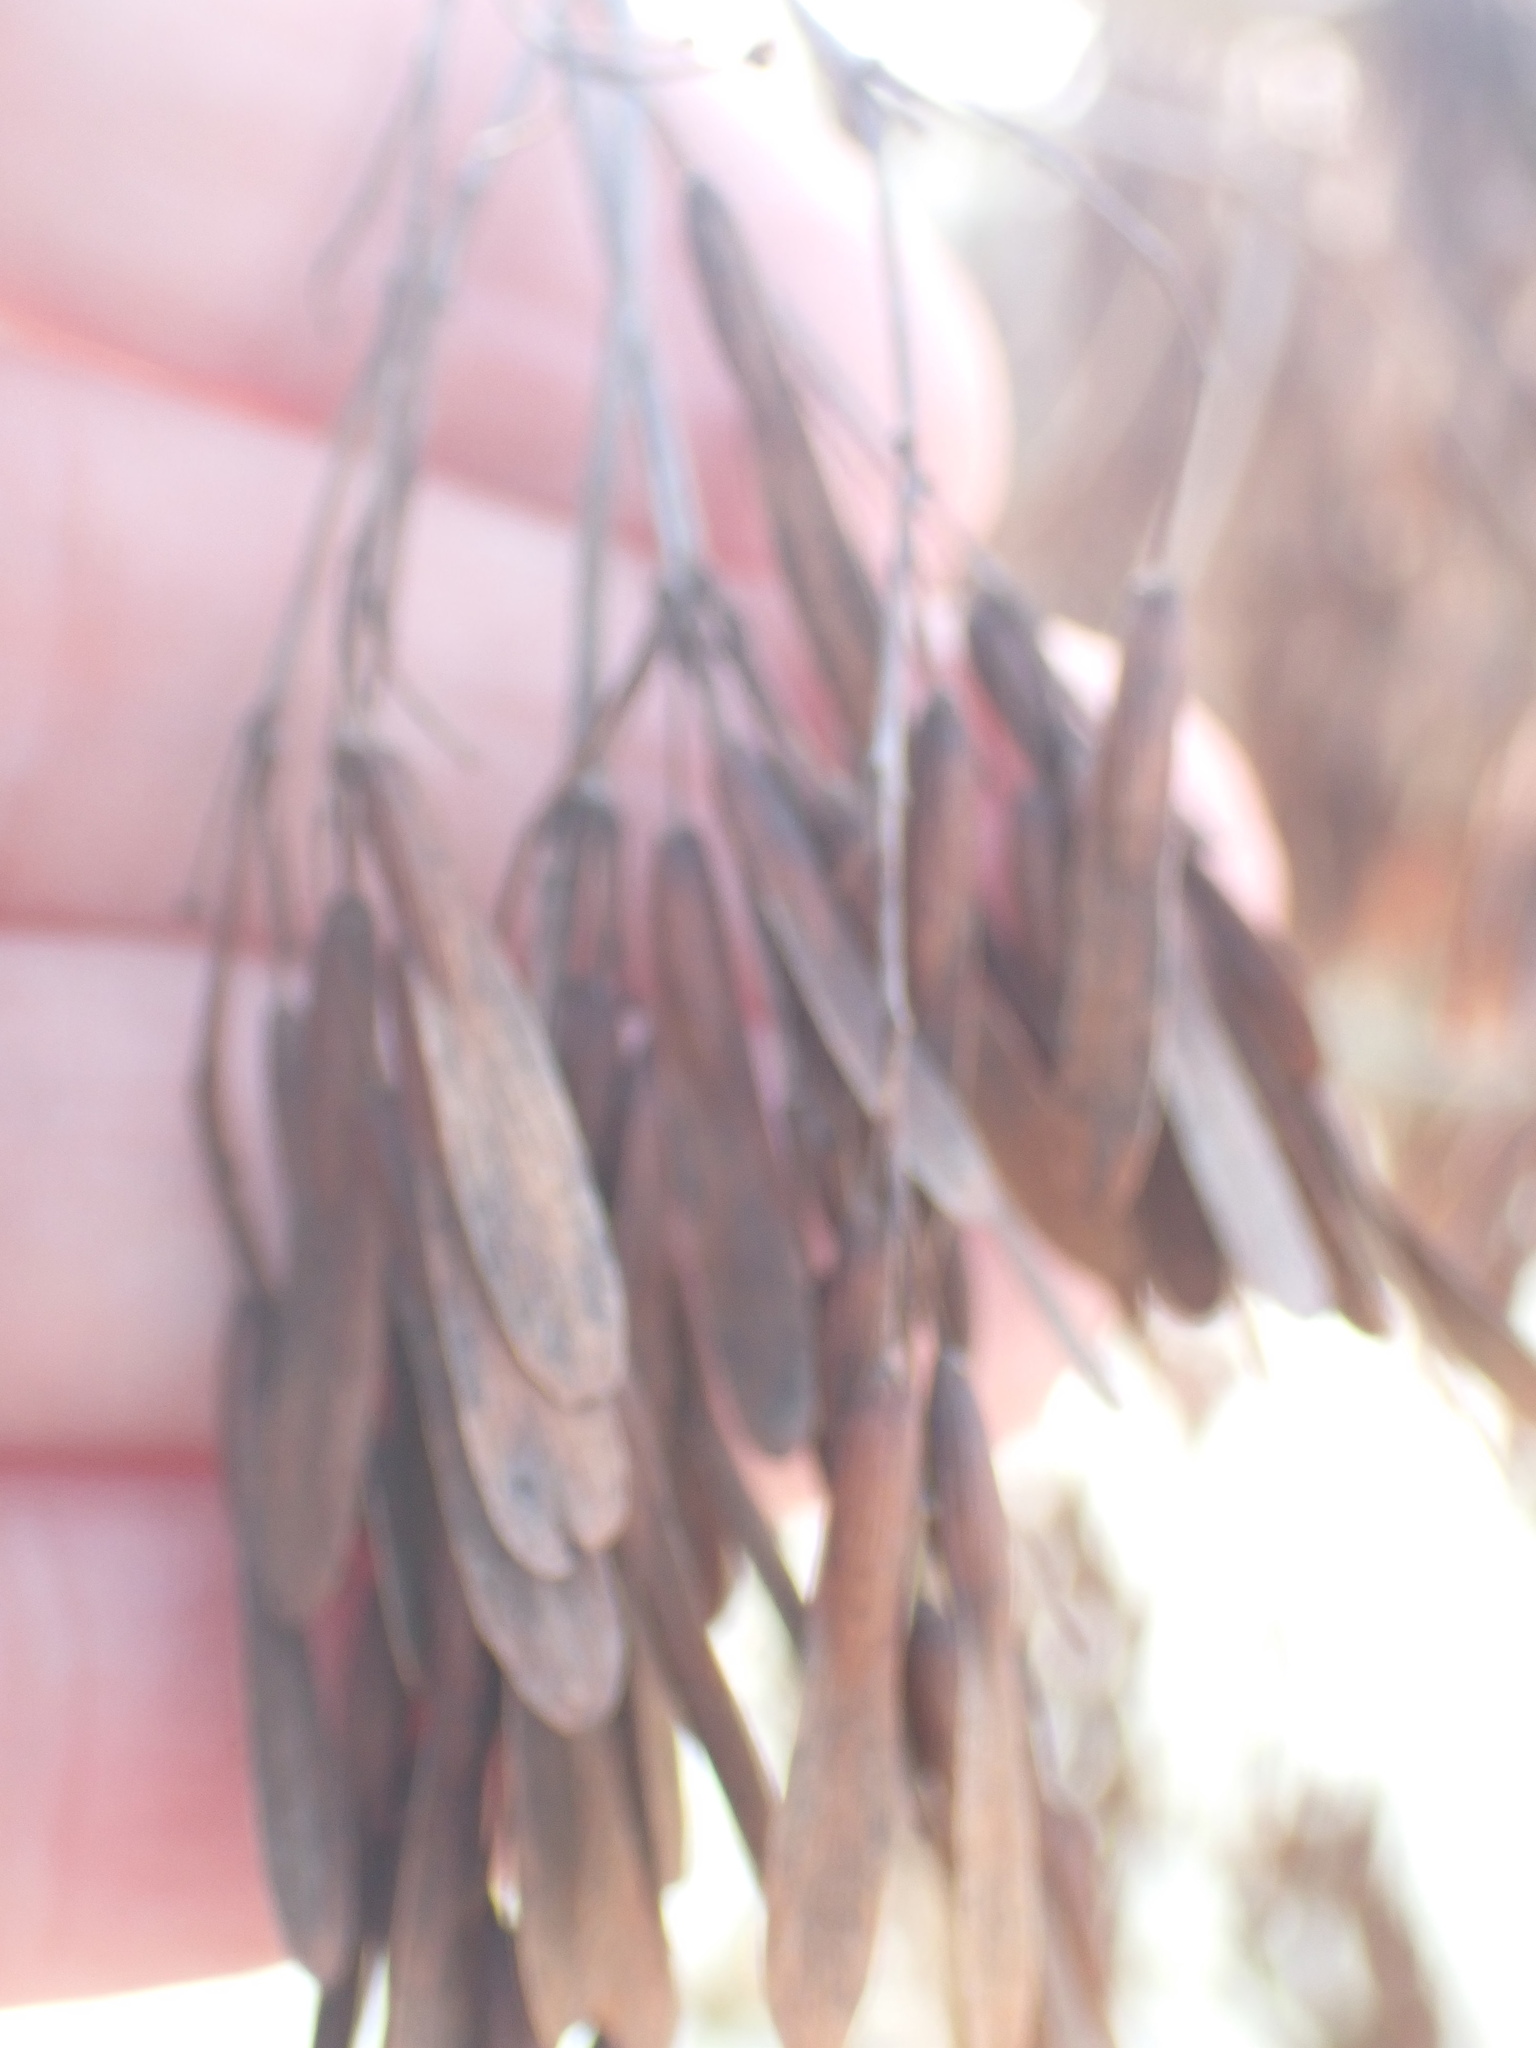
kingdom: Plantae
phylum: Tracheophyta
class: Magnoliopsida
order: Lamiales
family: Oleaceae
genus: Fraxinus
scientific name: Fraxinus excelsior
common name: European ash
